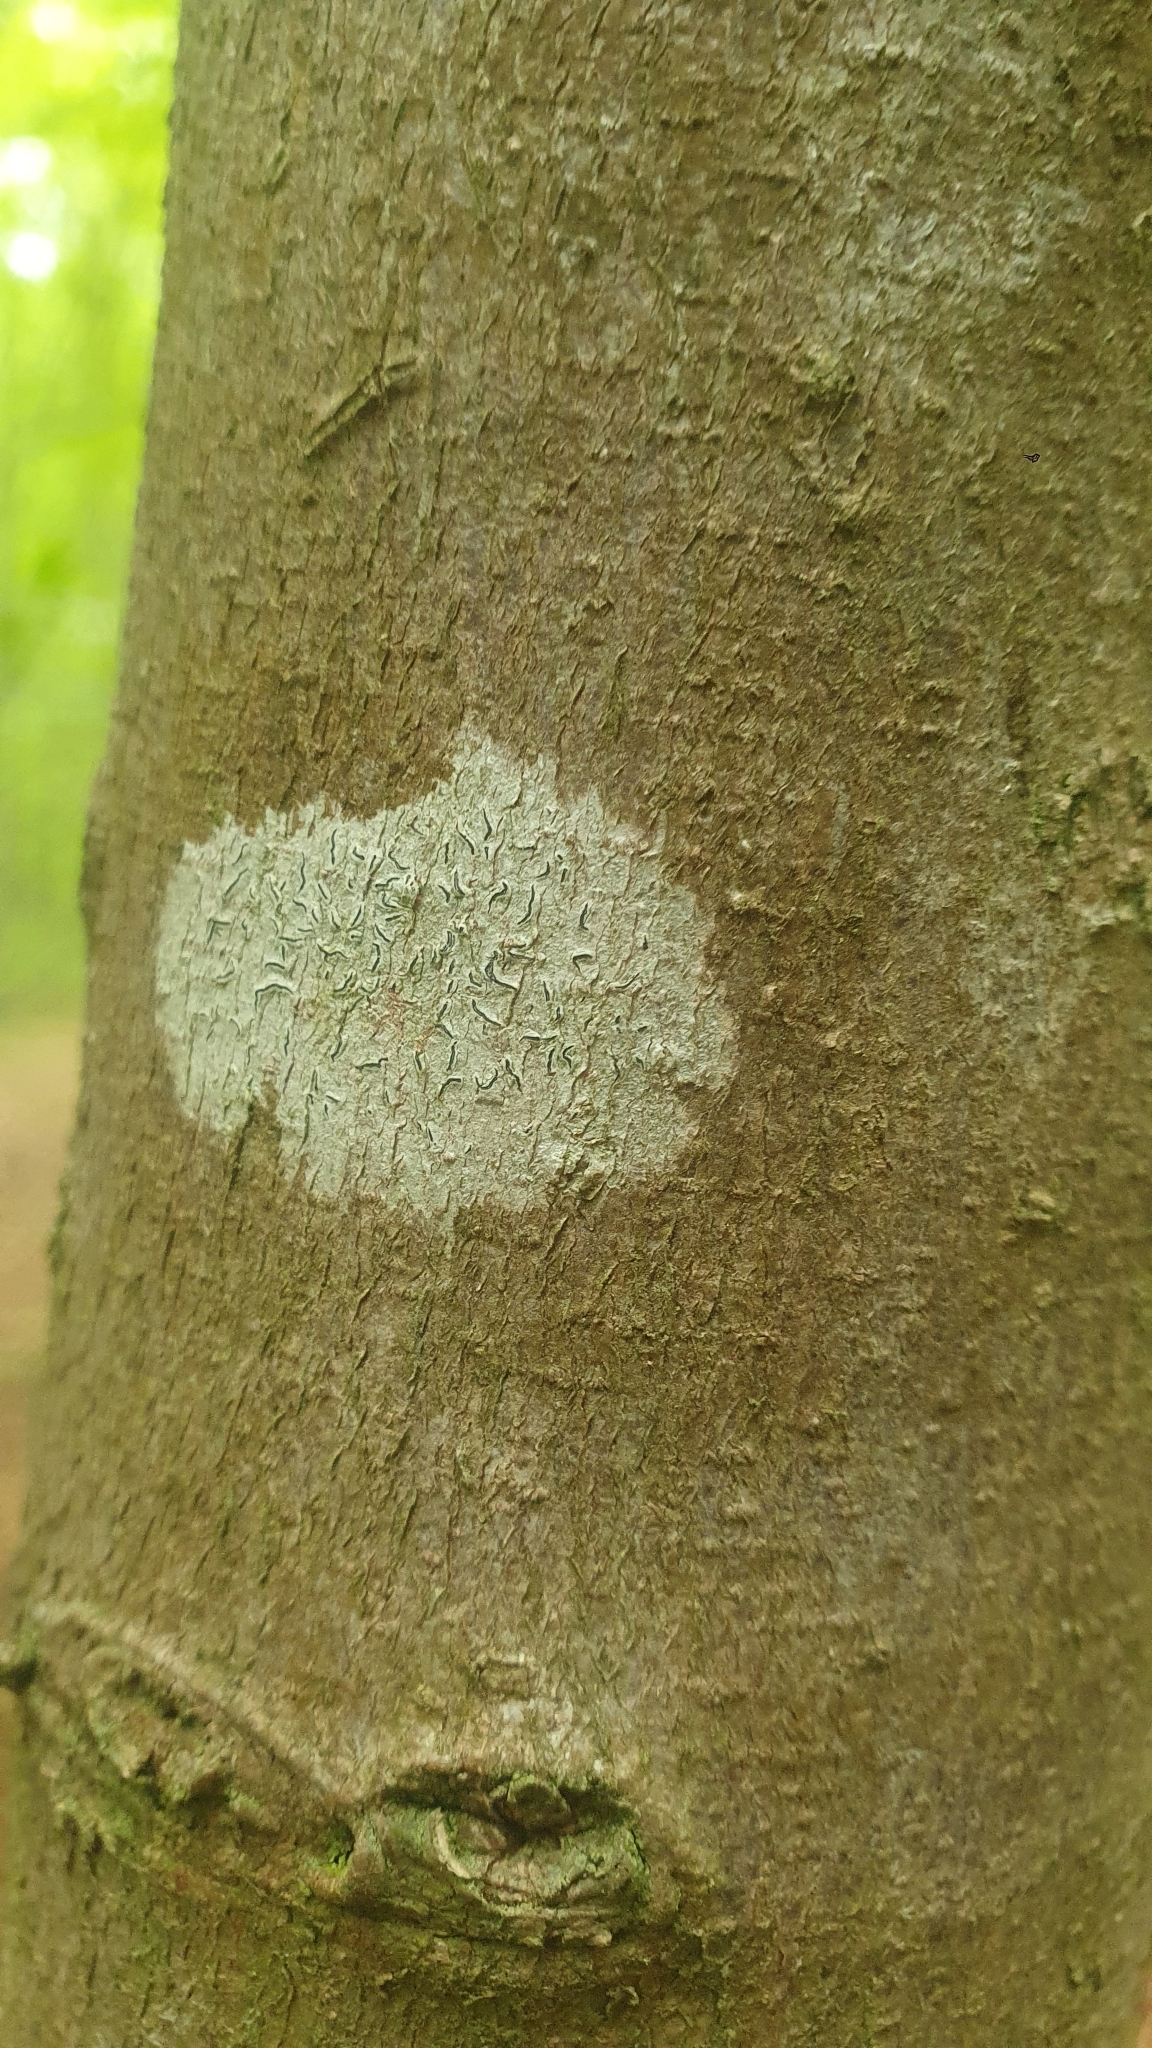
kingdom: Fungi
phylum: Ascomycota
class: Lecanoromycetes
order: Ostropales
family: Graphidaceae
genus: Graphis
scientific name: Graphis scripta
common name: Script lichen
